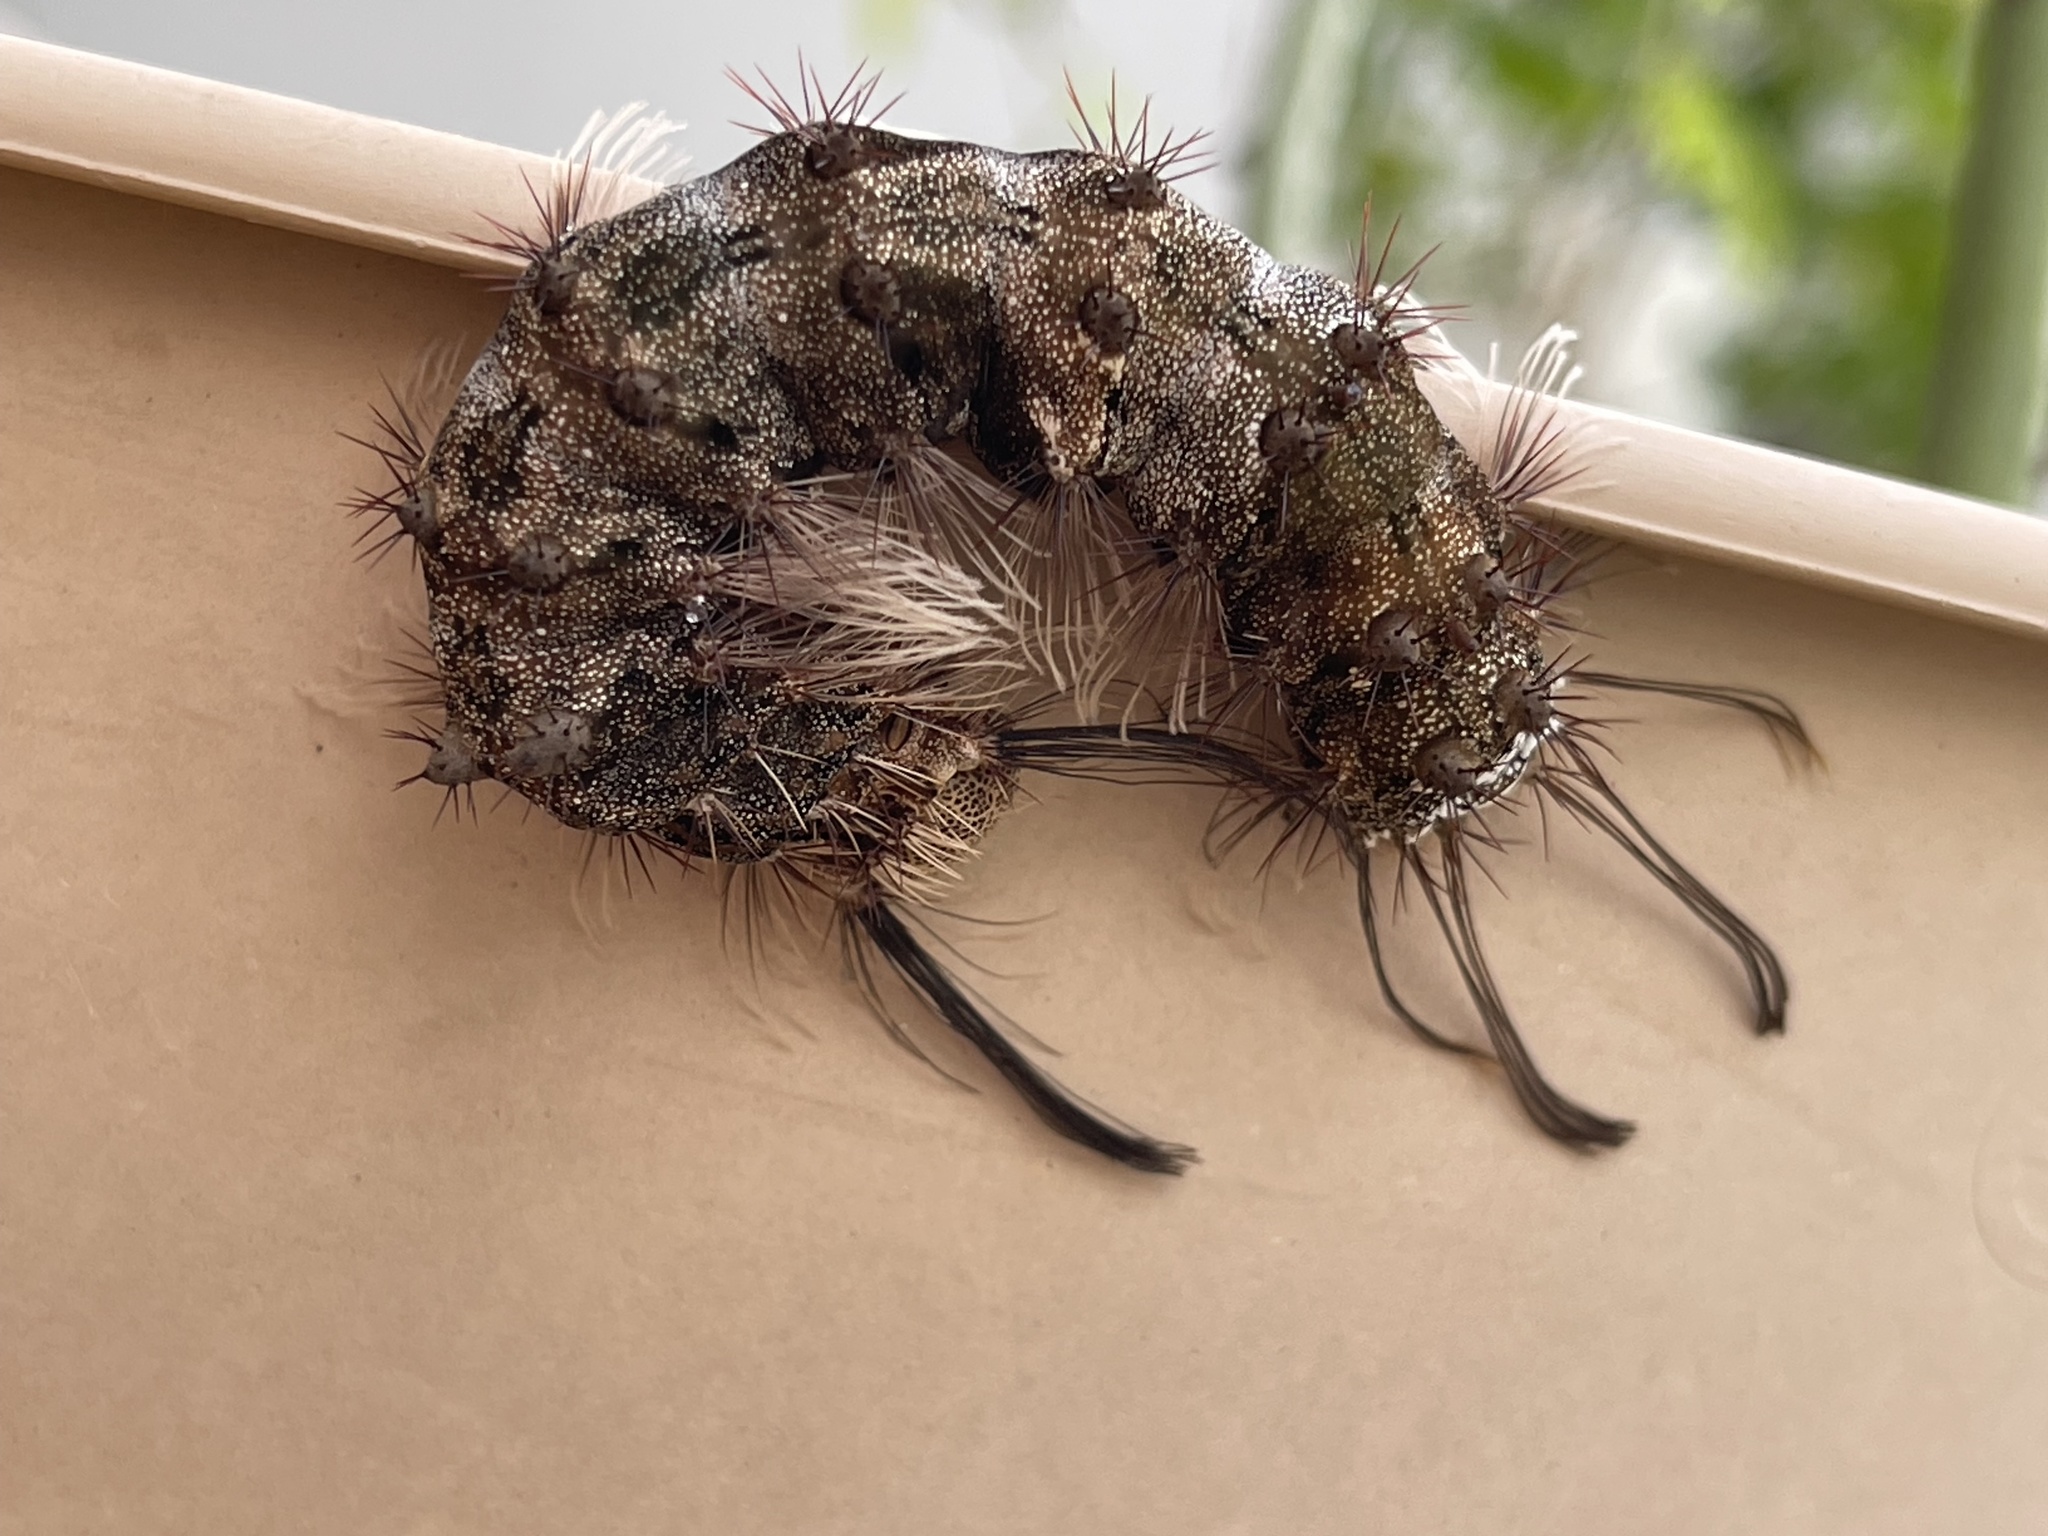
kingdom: Animalia
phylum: Arthropoda
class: Insecta
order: Lepidoptera
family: Erebidae
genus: Lymantria
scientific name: Lymantria mathura
